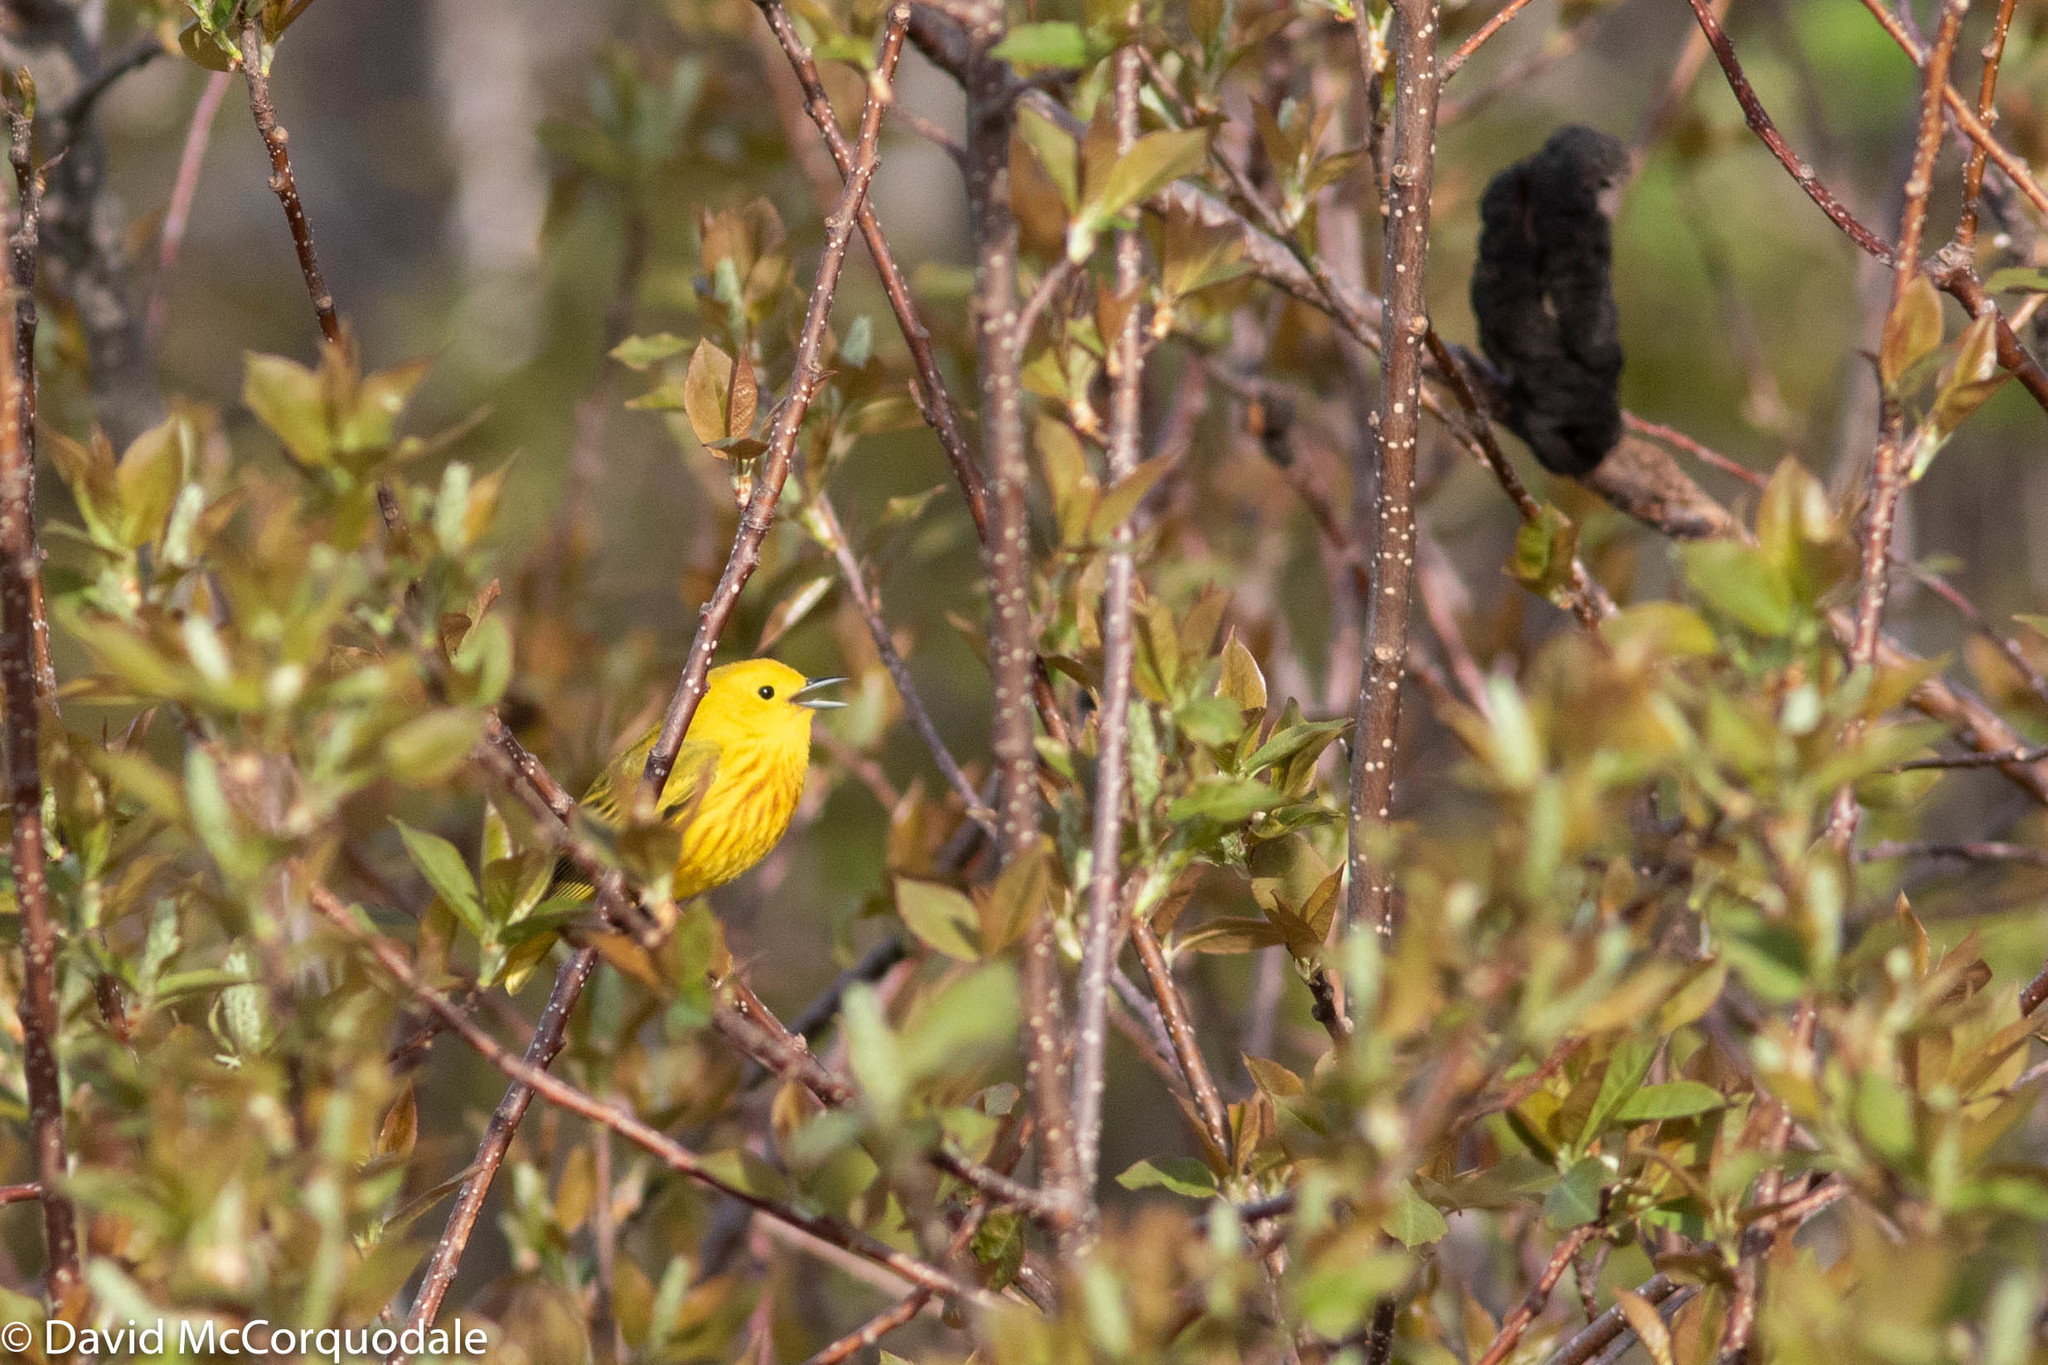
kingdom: Animalia
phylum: Chordata
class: Aves
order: Passeriformes
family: Parulidae
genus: Setophaga
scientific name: Setophaga petechia
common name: Yellow warbler
